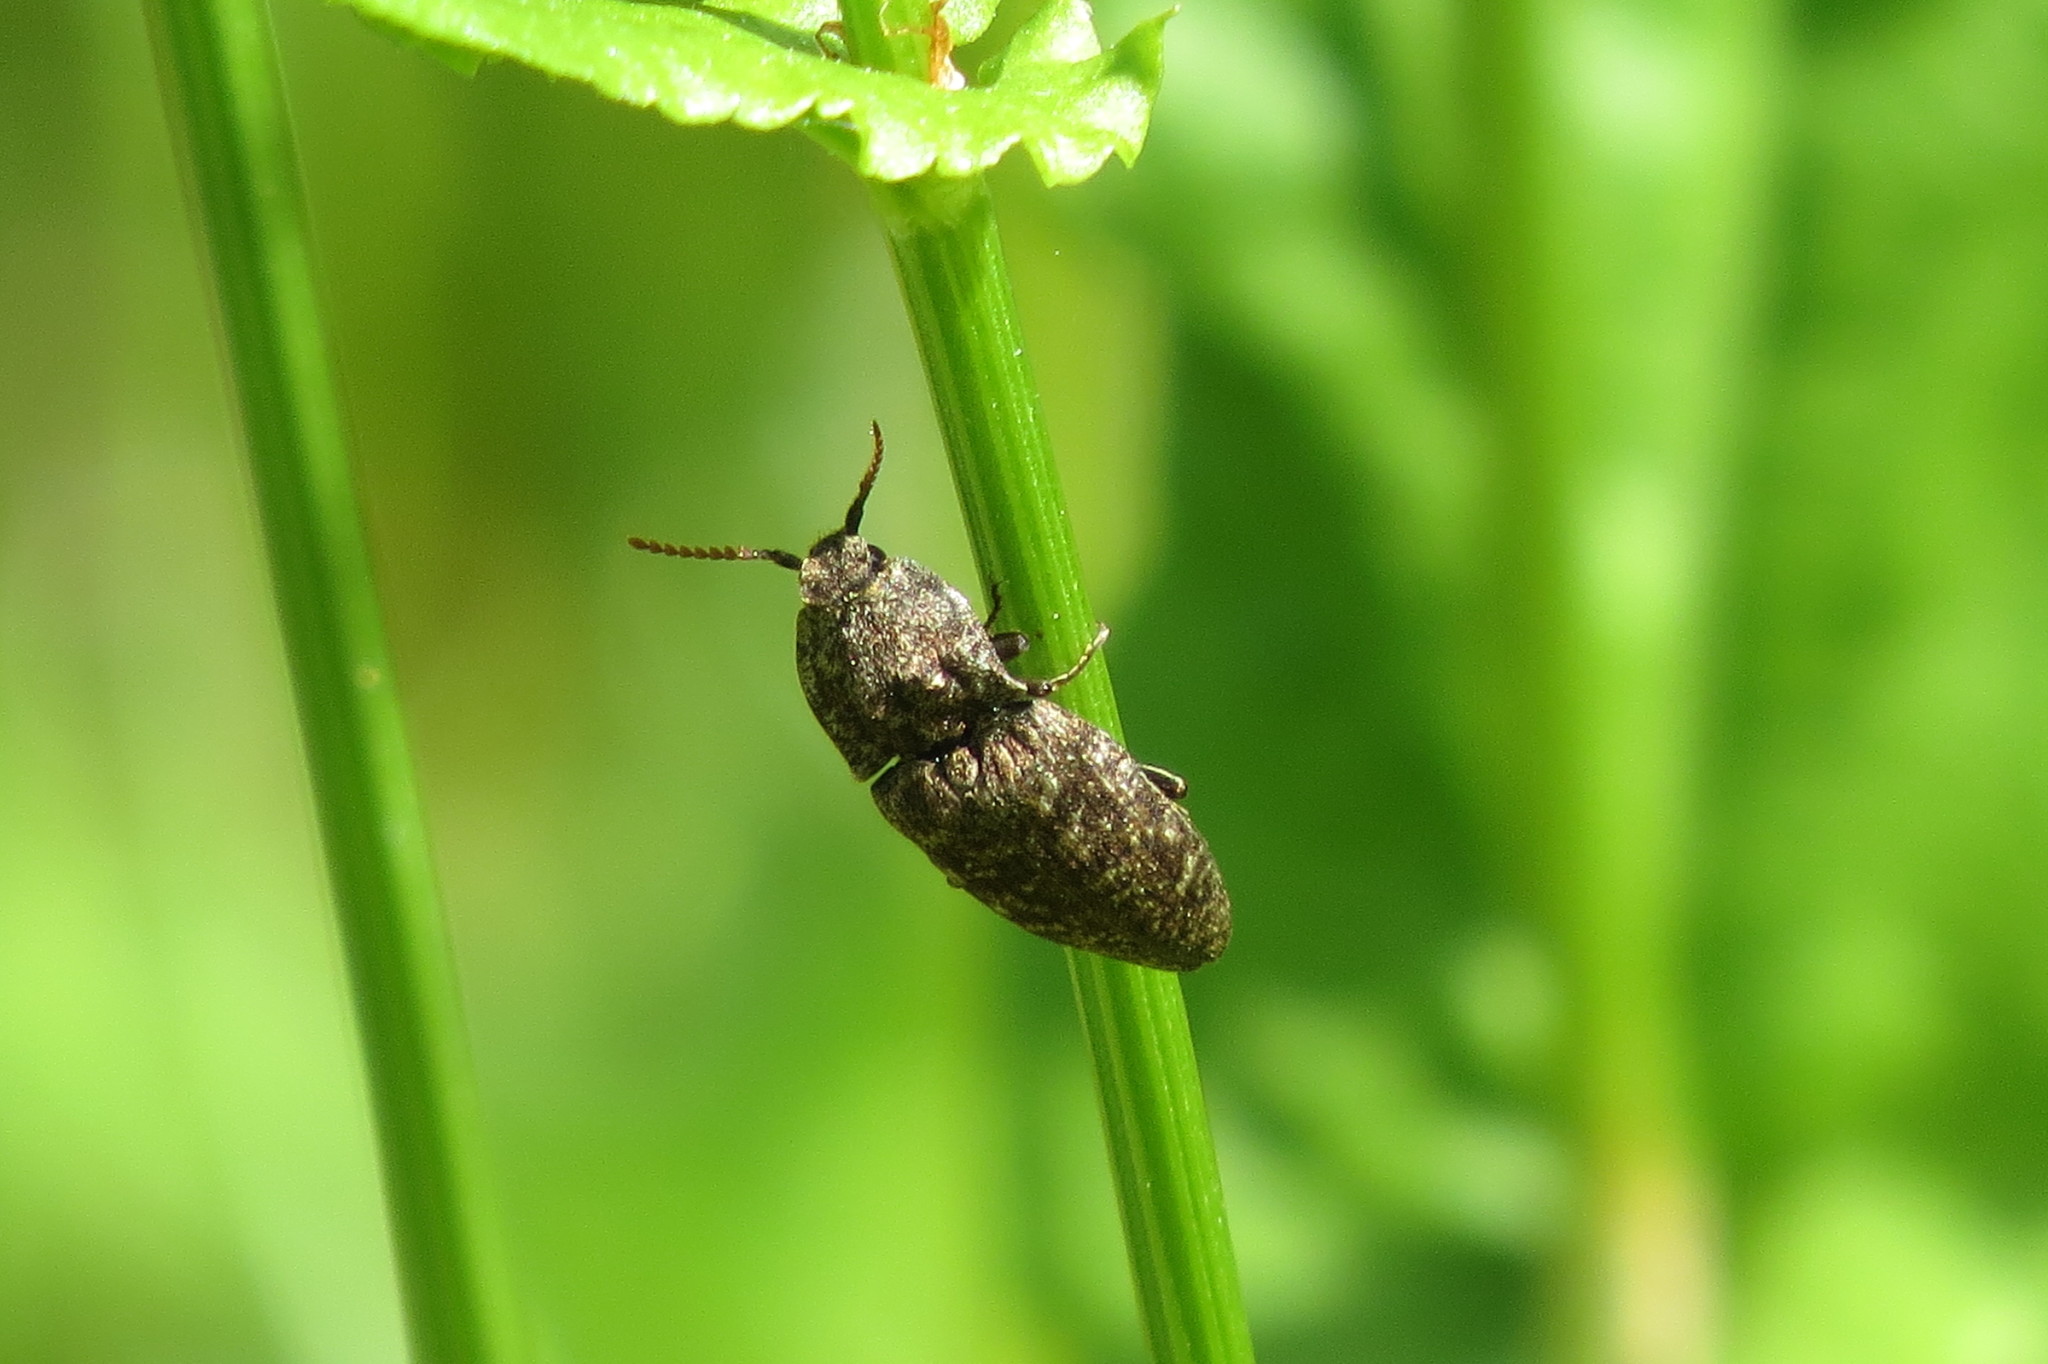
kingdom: Animalia
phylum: Arthropoda
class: Insecta
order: Coleoptera
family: Elateridae
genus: Agrypnus
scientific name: Agrypnus murinus
